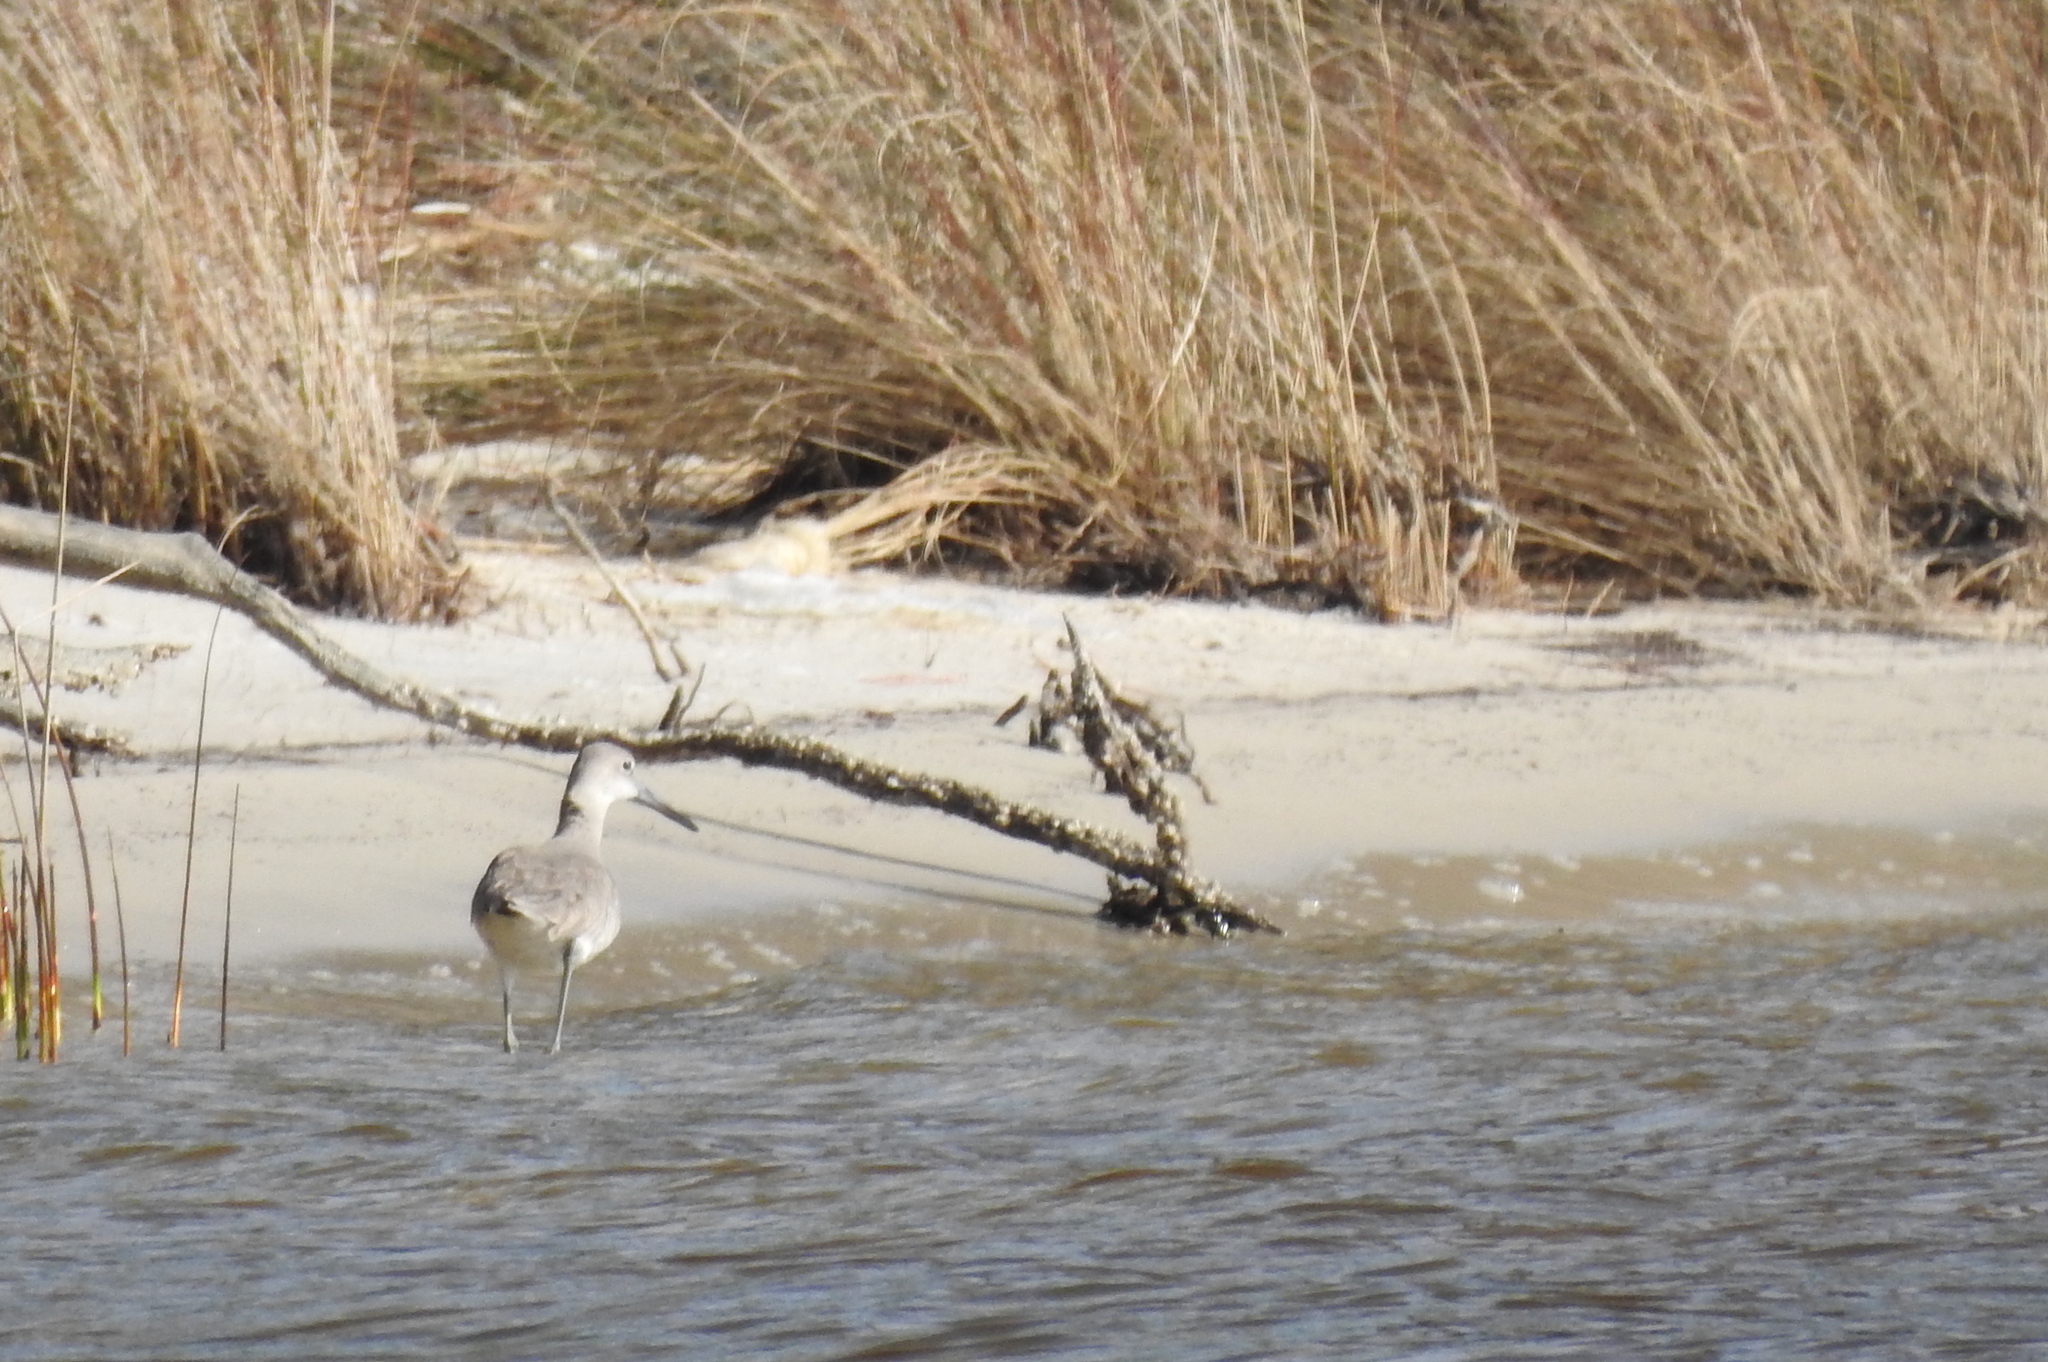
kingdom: Animalia
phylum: Chordata
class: Aves
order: Charadriiformes
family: Scolopacidae
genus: Tringa
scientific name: Tringa semipalmata
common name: Willet
